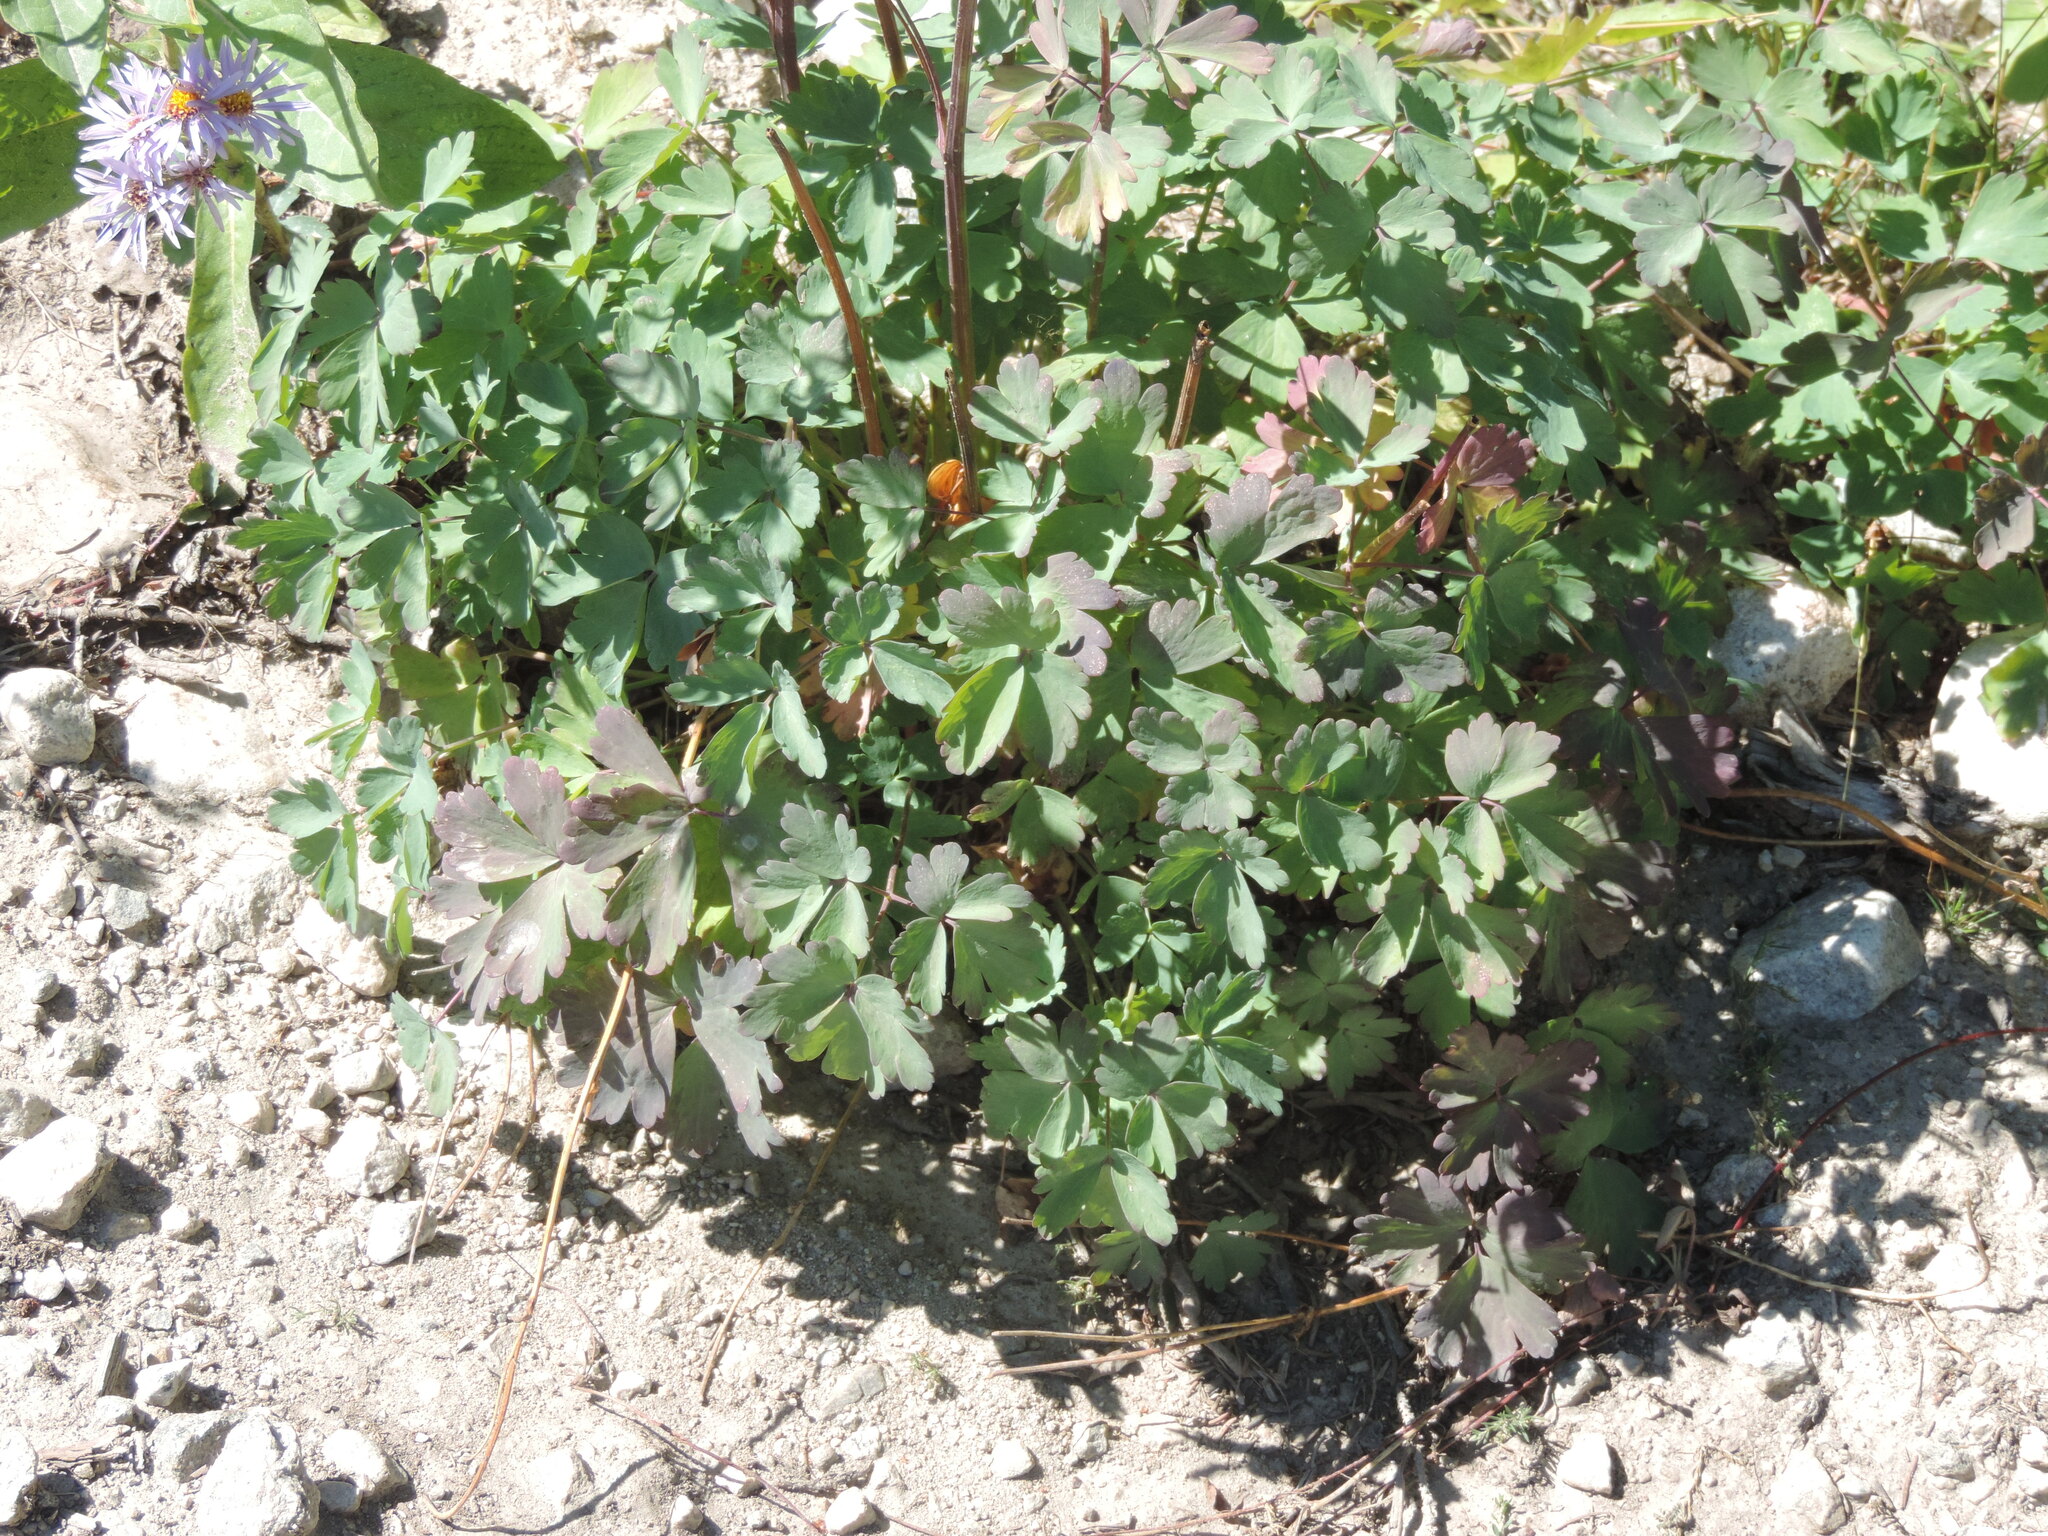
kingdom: Plantae
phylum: Tracheophyta
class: Magnoliopsida
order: Ranunculales
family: Ranunculaceae
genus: Aquilegia
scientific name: Aquilegia formosa
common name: Sitka columbine
